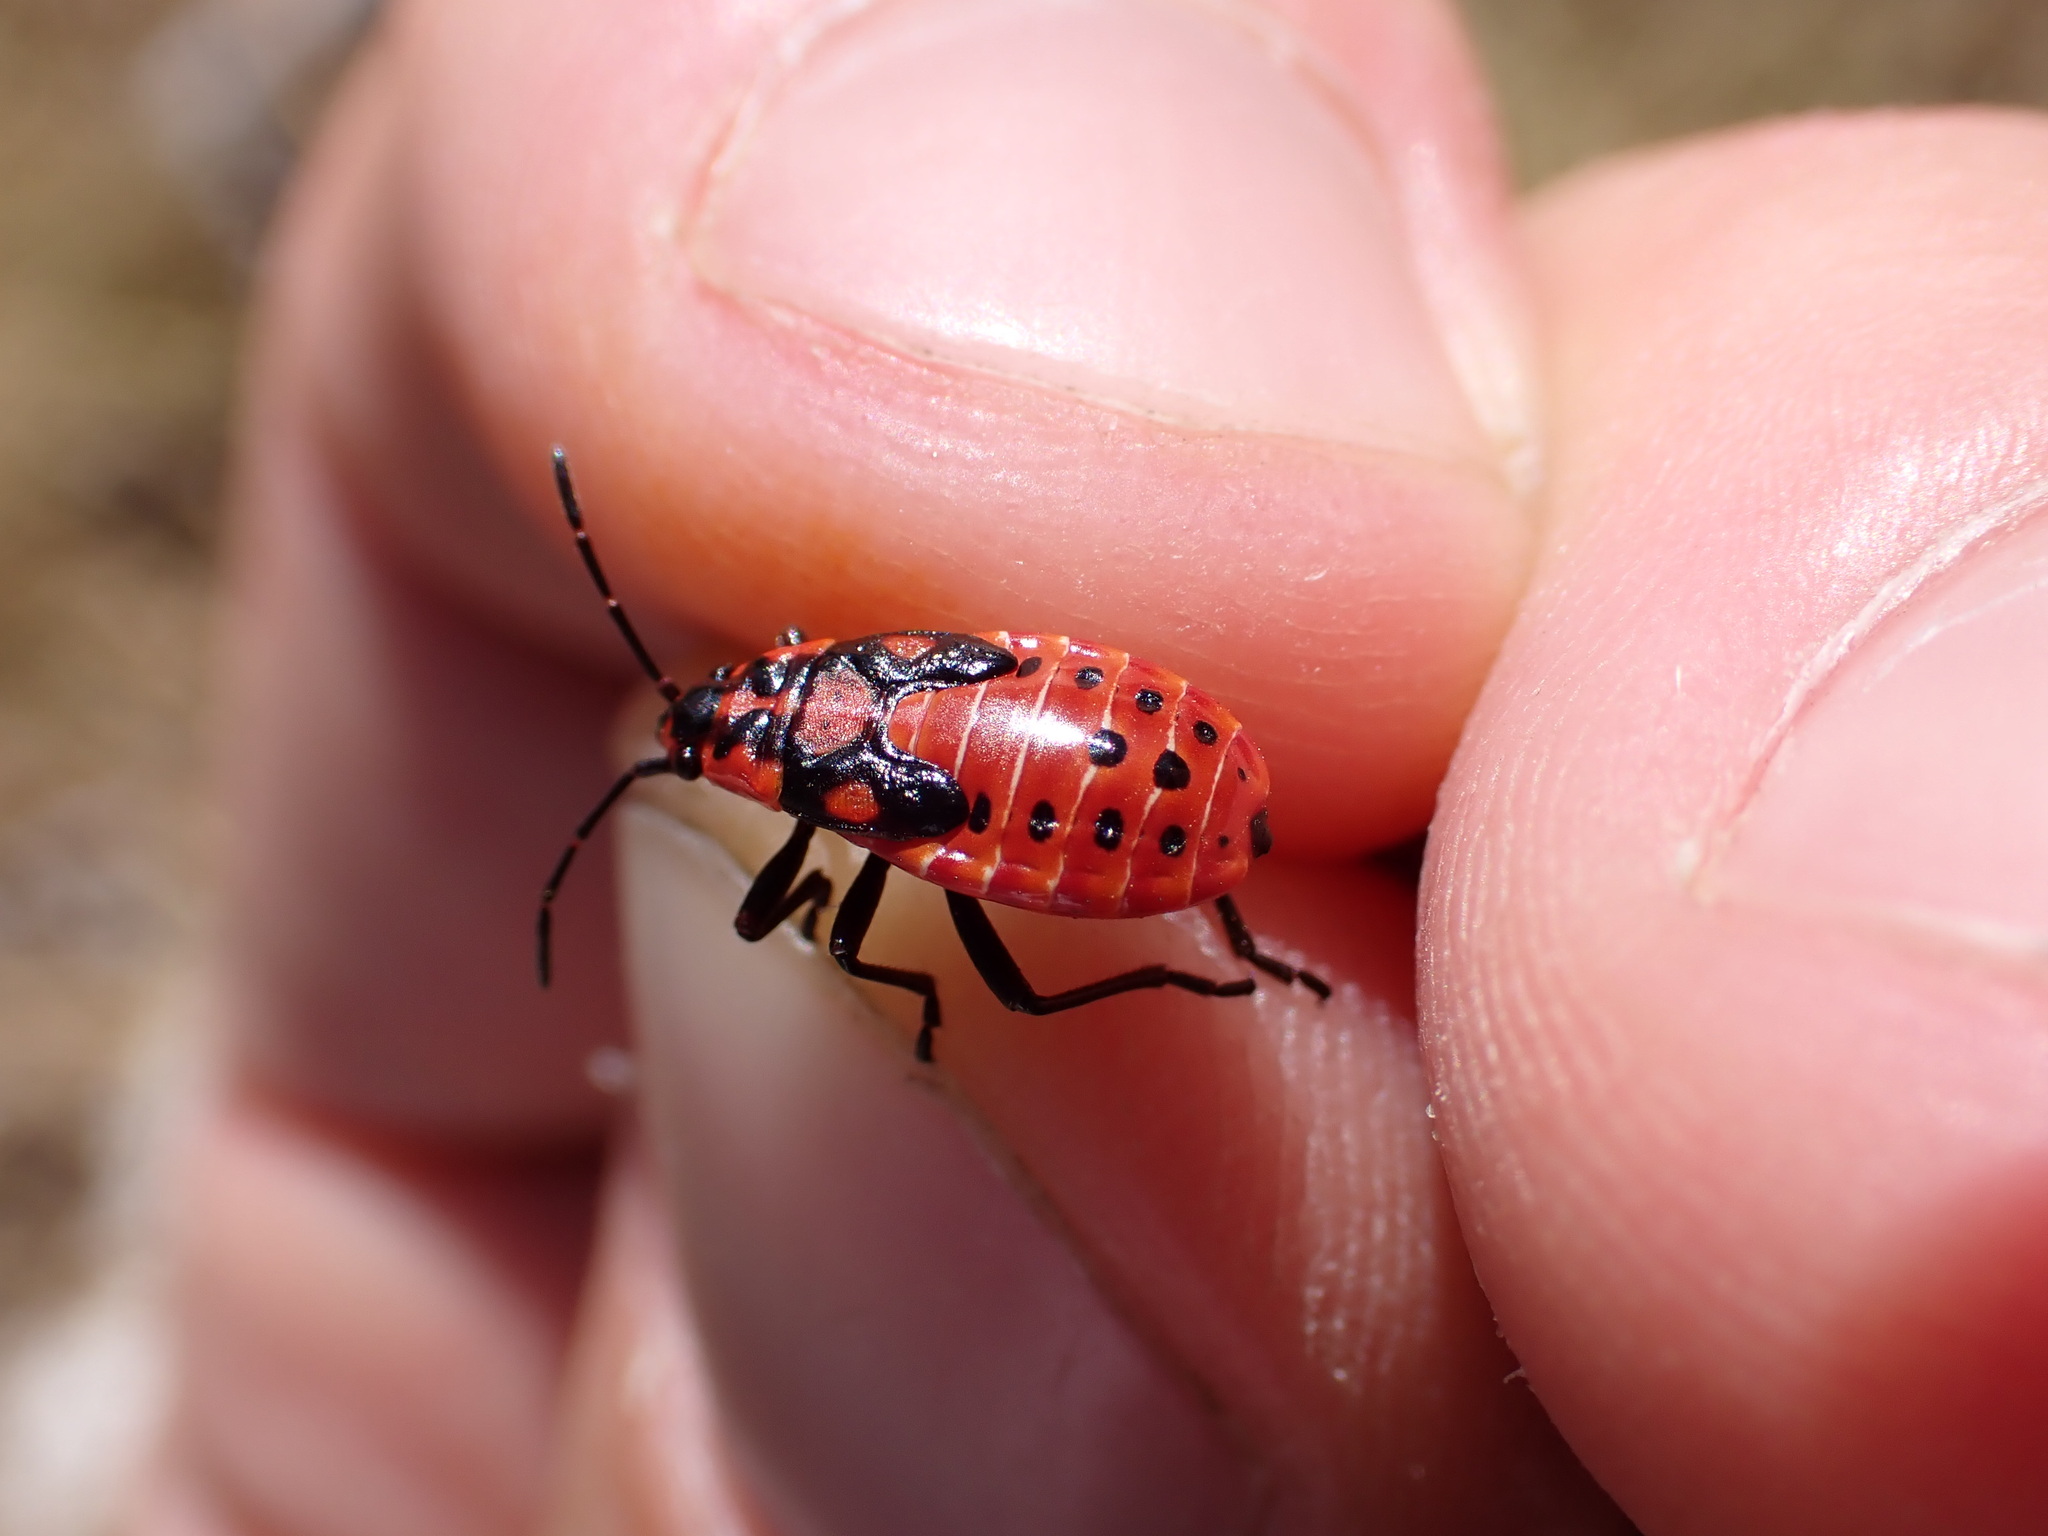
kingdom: Animalia
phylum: Arthropoda
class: Insecta
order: Hemiptera
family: Lygaeidae
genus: Spilostethus
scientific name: Spilostethus saxatilis
